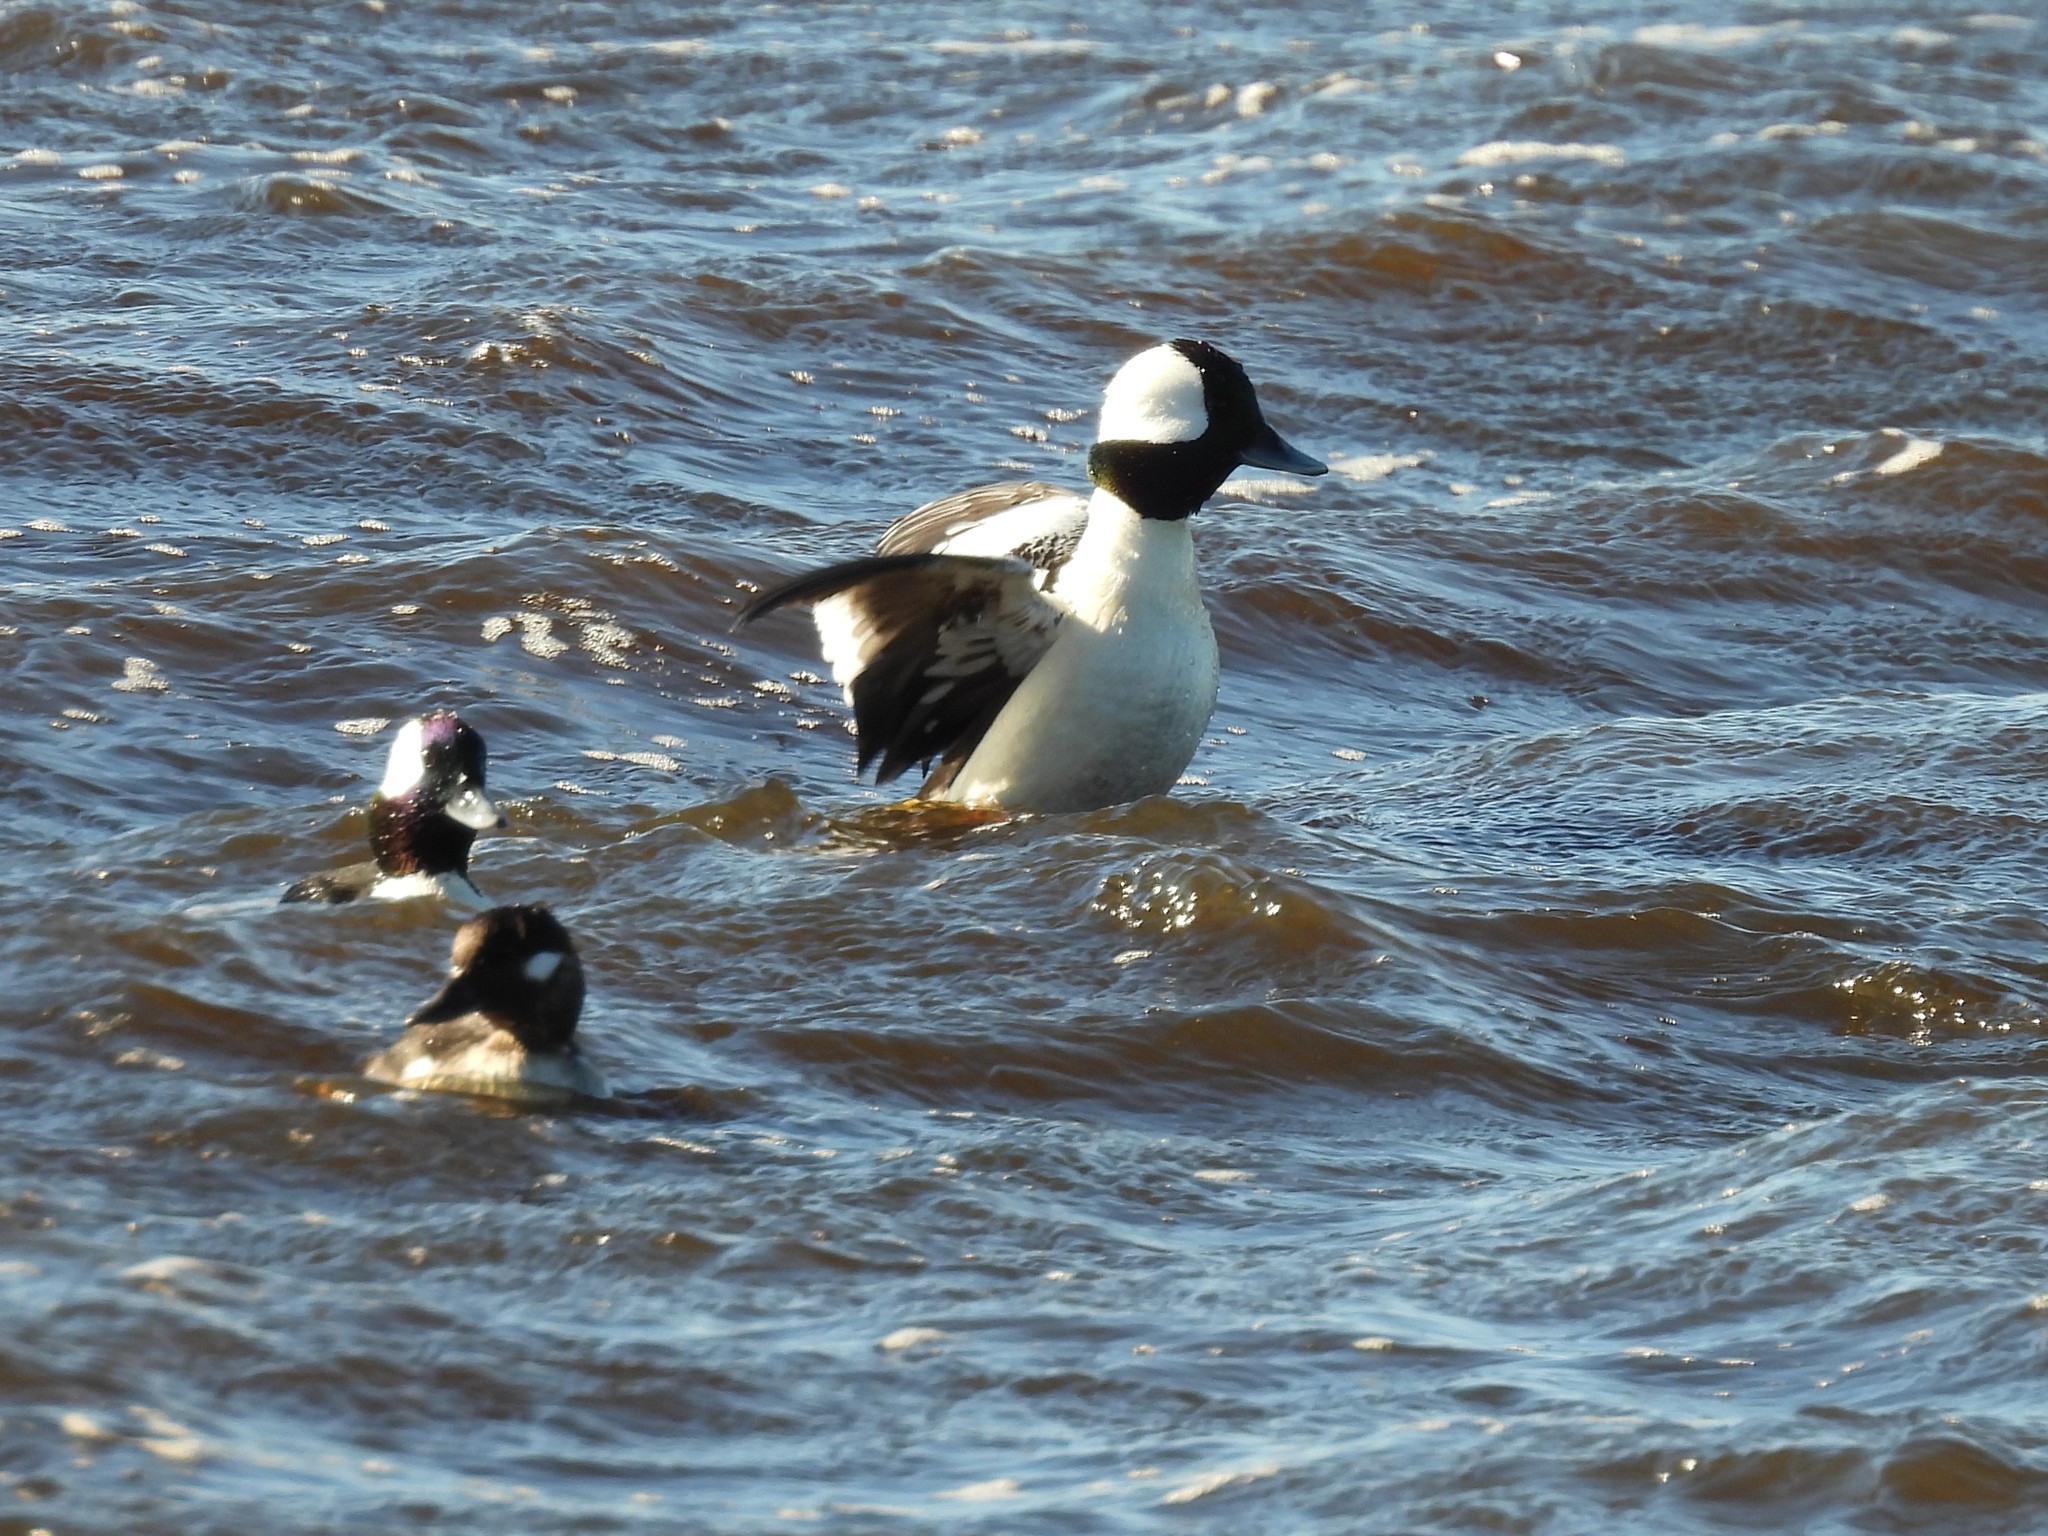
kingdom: Animalia
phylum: Chordata
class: Aves
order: Anseriformes
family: Anatidae
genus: Bucephala
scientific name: Bucephala albeola
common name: Bufflehead
